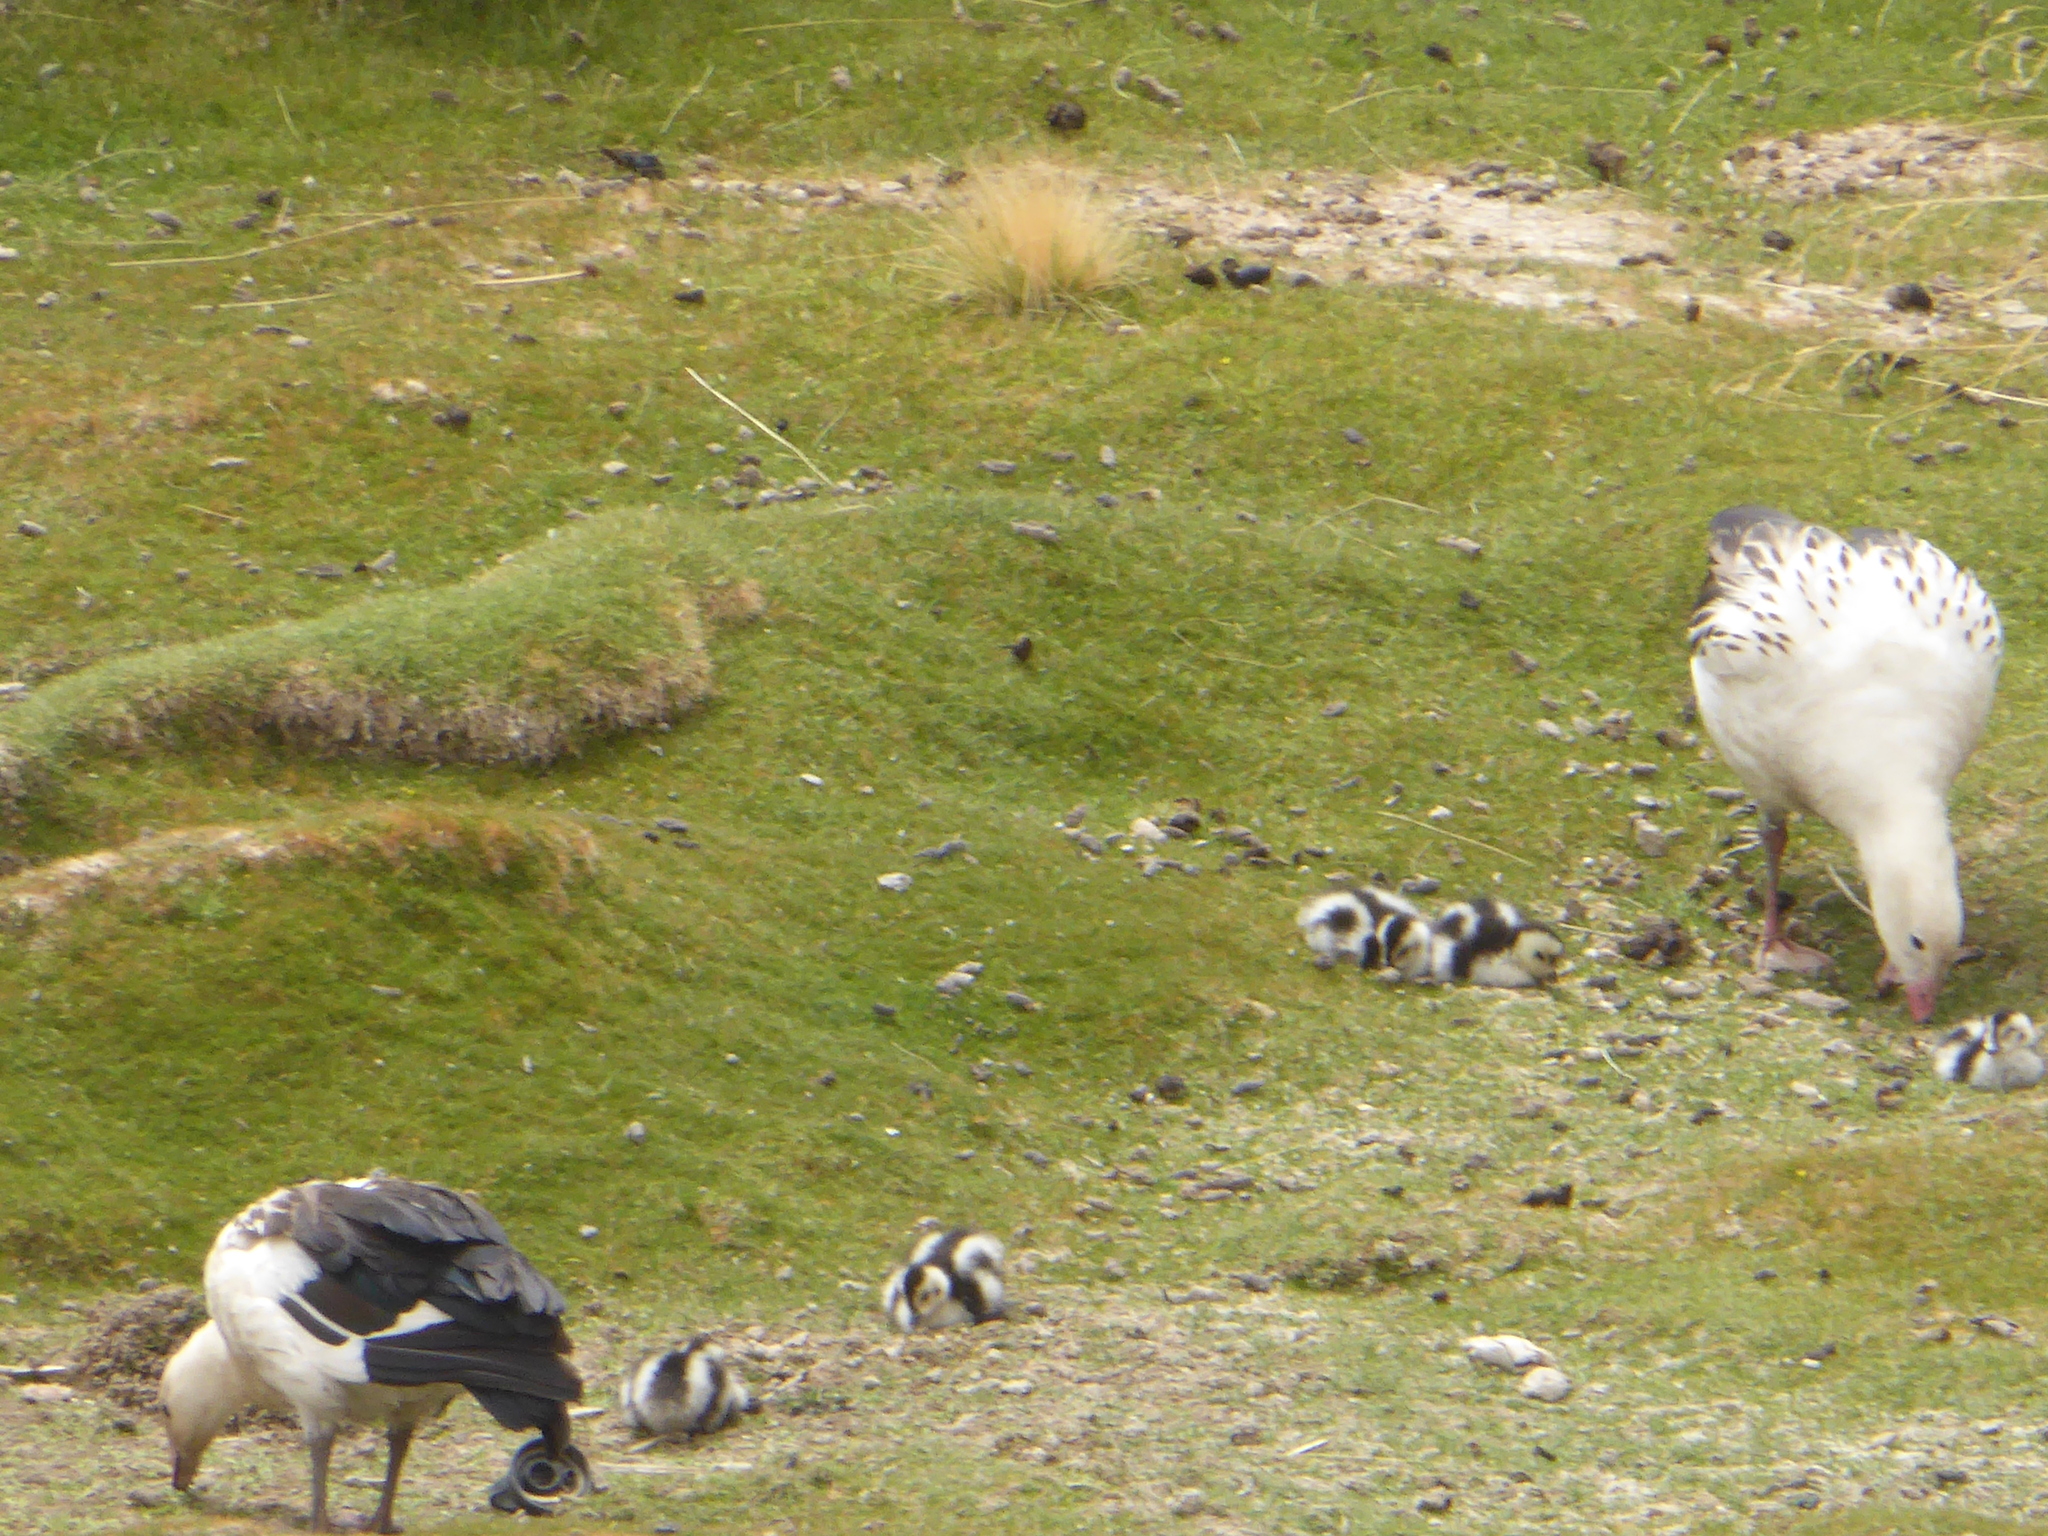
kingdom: Animalia
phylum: Chordata
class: Aves
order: Anseriformes
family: Anatidae
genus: Chloephaga
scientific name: Chloephaga melanoptera
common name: Andean goose
